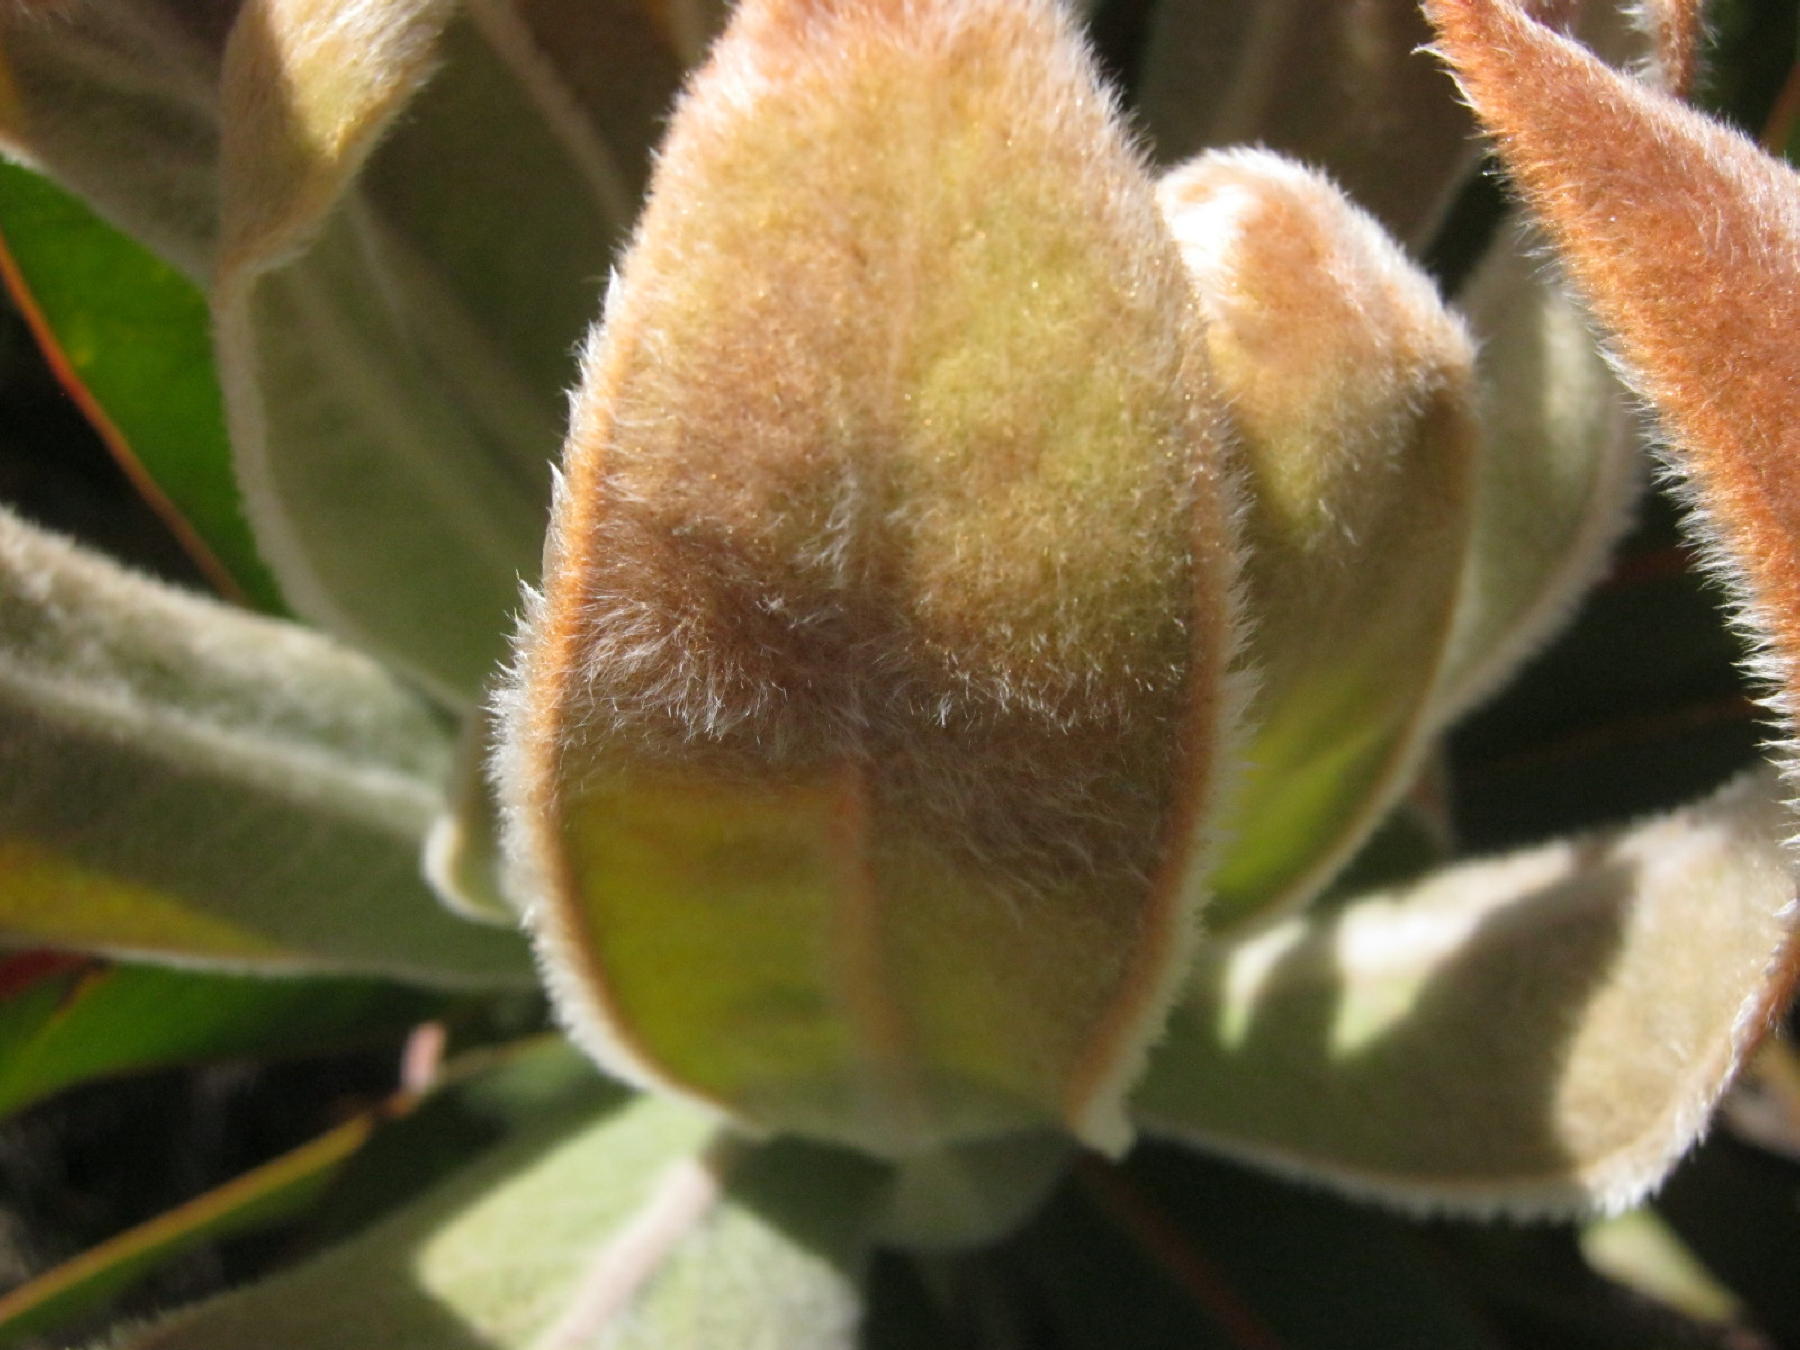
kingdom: Plantae
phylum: Tracheophyta
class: Magnoliopsida
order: Proteales
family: Proteaceae
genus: Protea
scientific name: Protea lorifolia
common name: Strap-leaved protea
